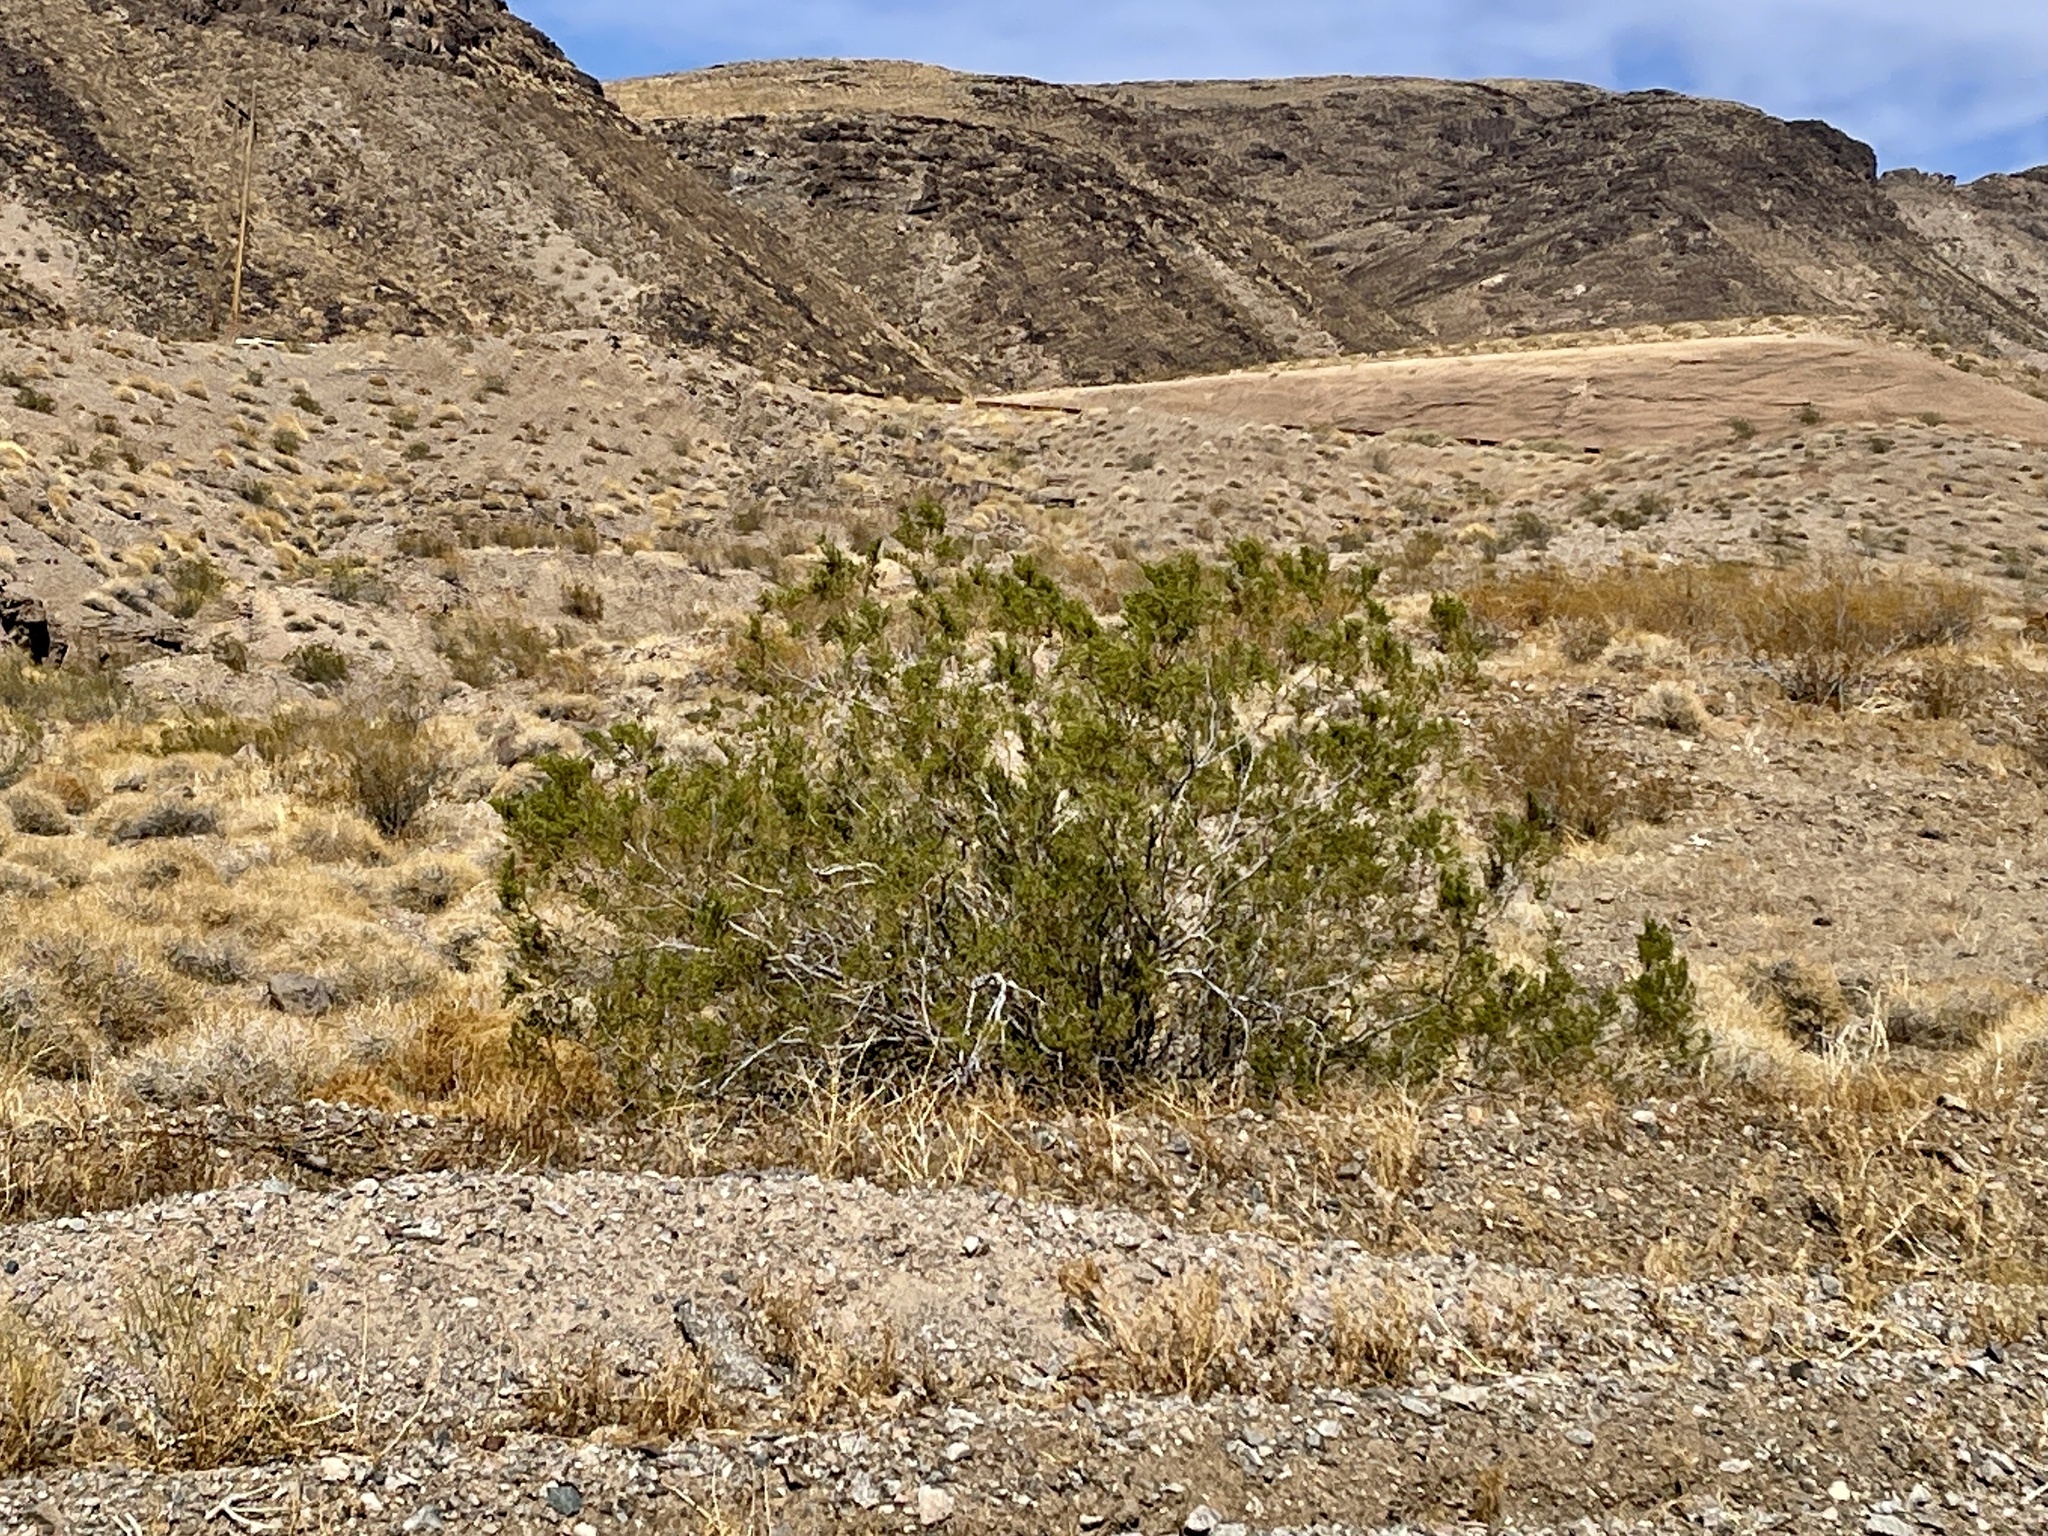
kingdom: Plantae
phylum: Tracheophyta
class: Magnoliopsida
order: Zygophyllales
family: Zygophyllaceae
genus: Larrea
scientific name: Larrea tridentata
